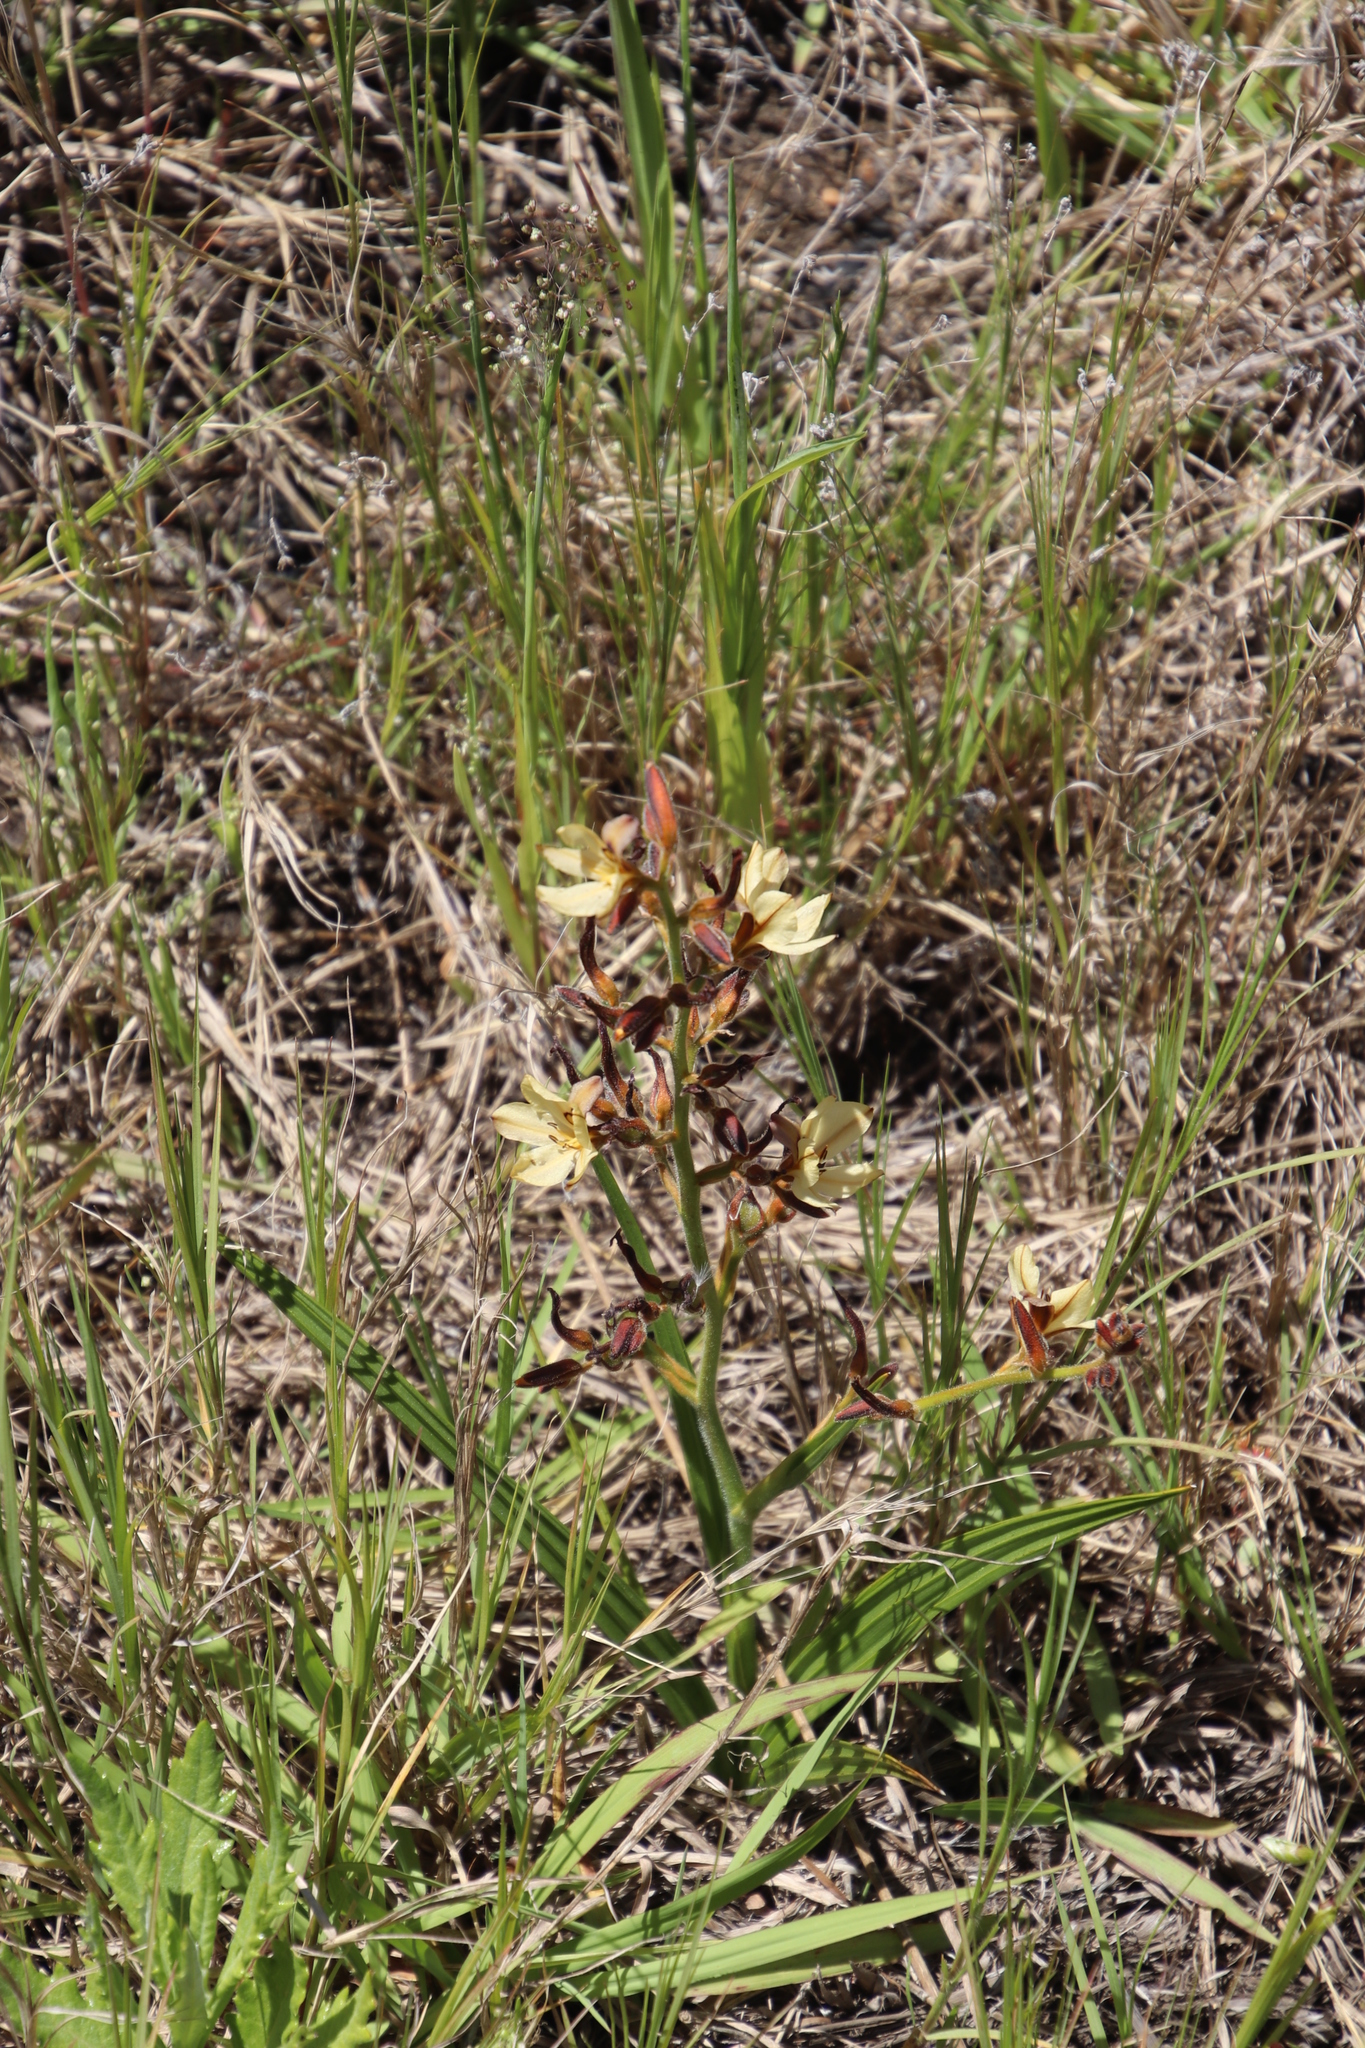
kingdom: Plantae
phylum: Tracheophyta
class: Liliopsida
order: Commelinales
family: Haemodoraceae
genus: Wachendorfia
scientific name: Wachendorfia paniculata
